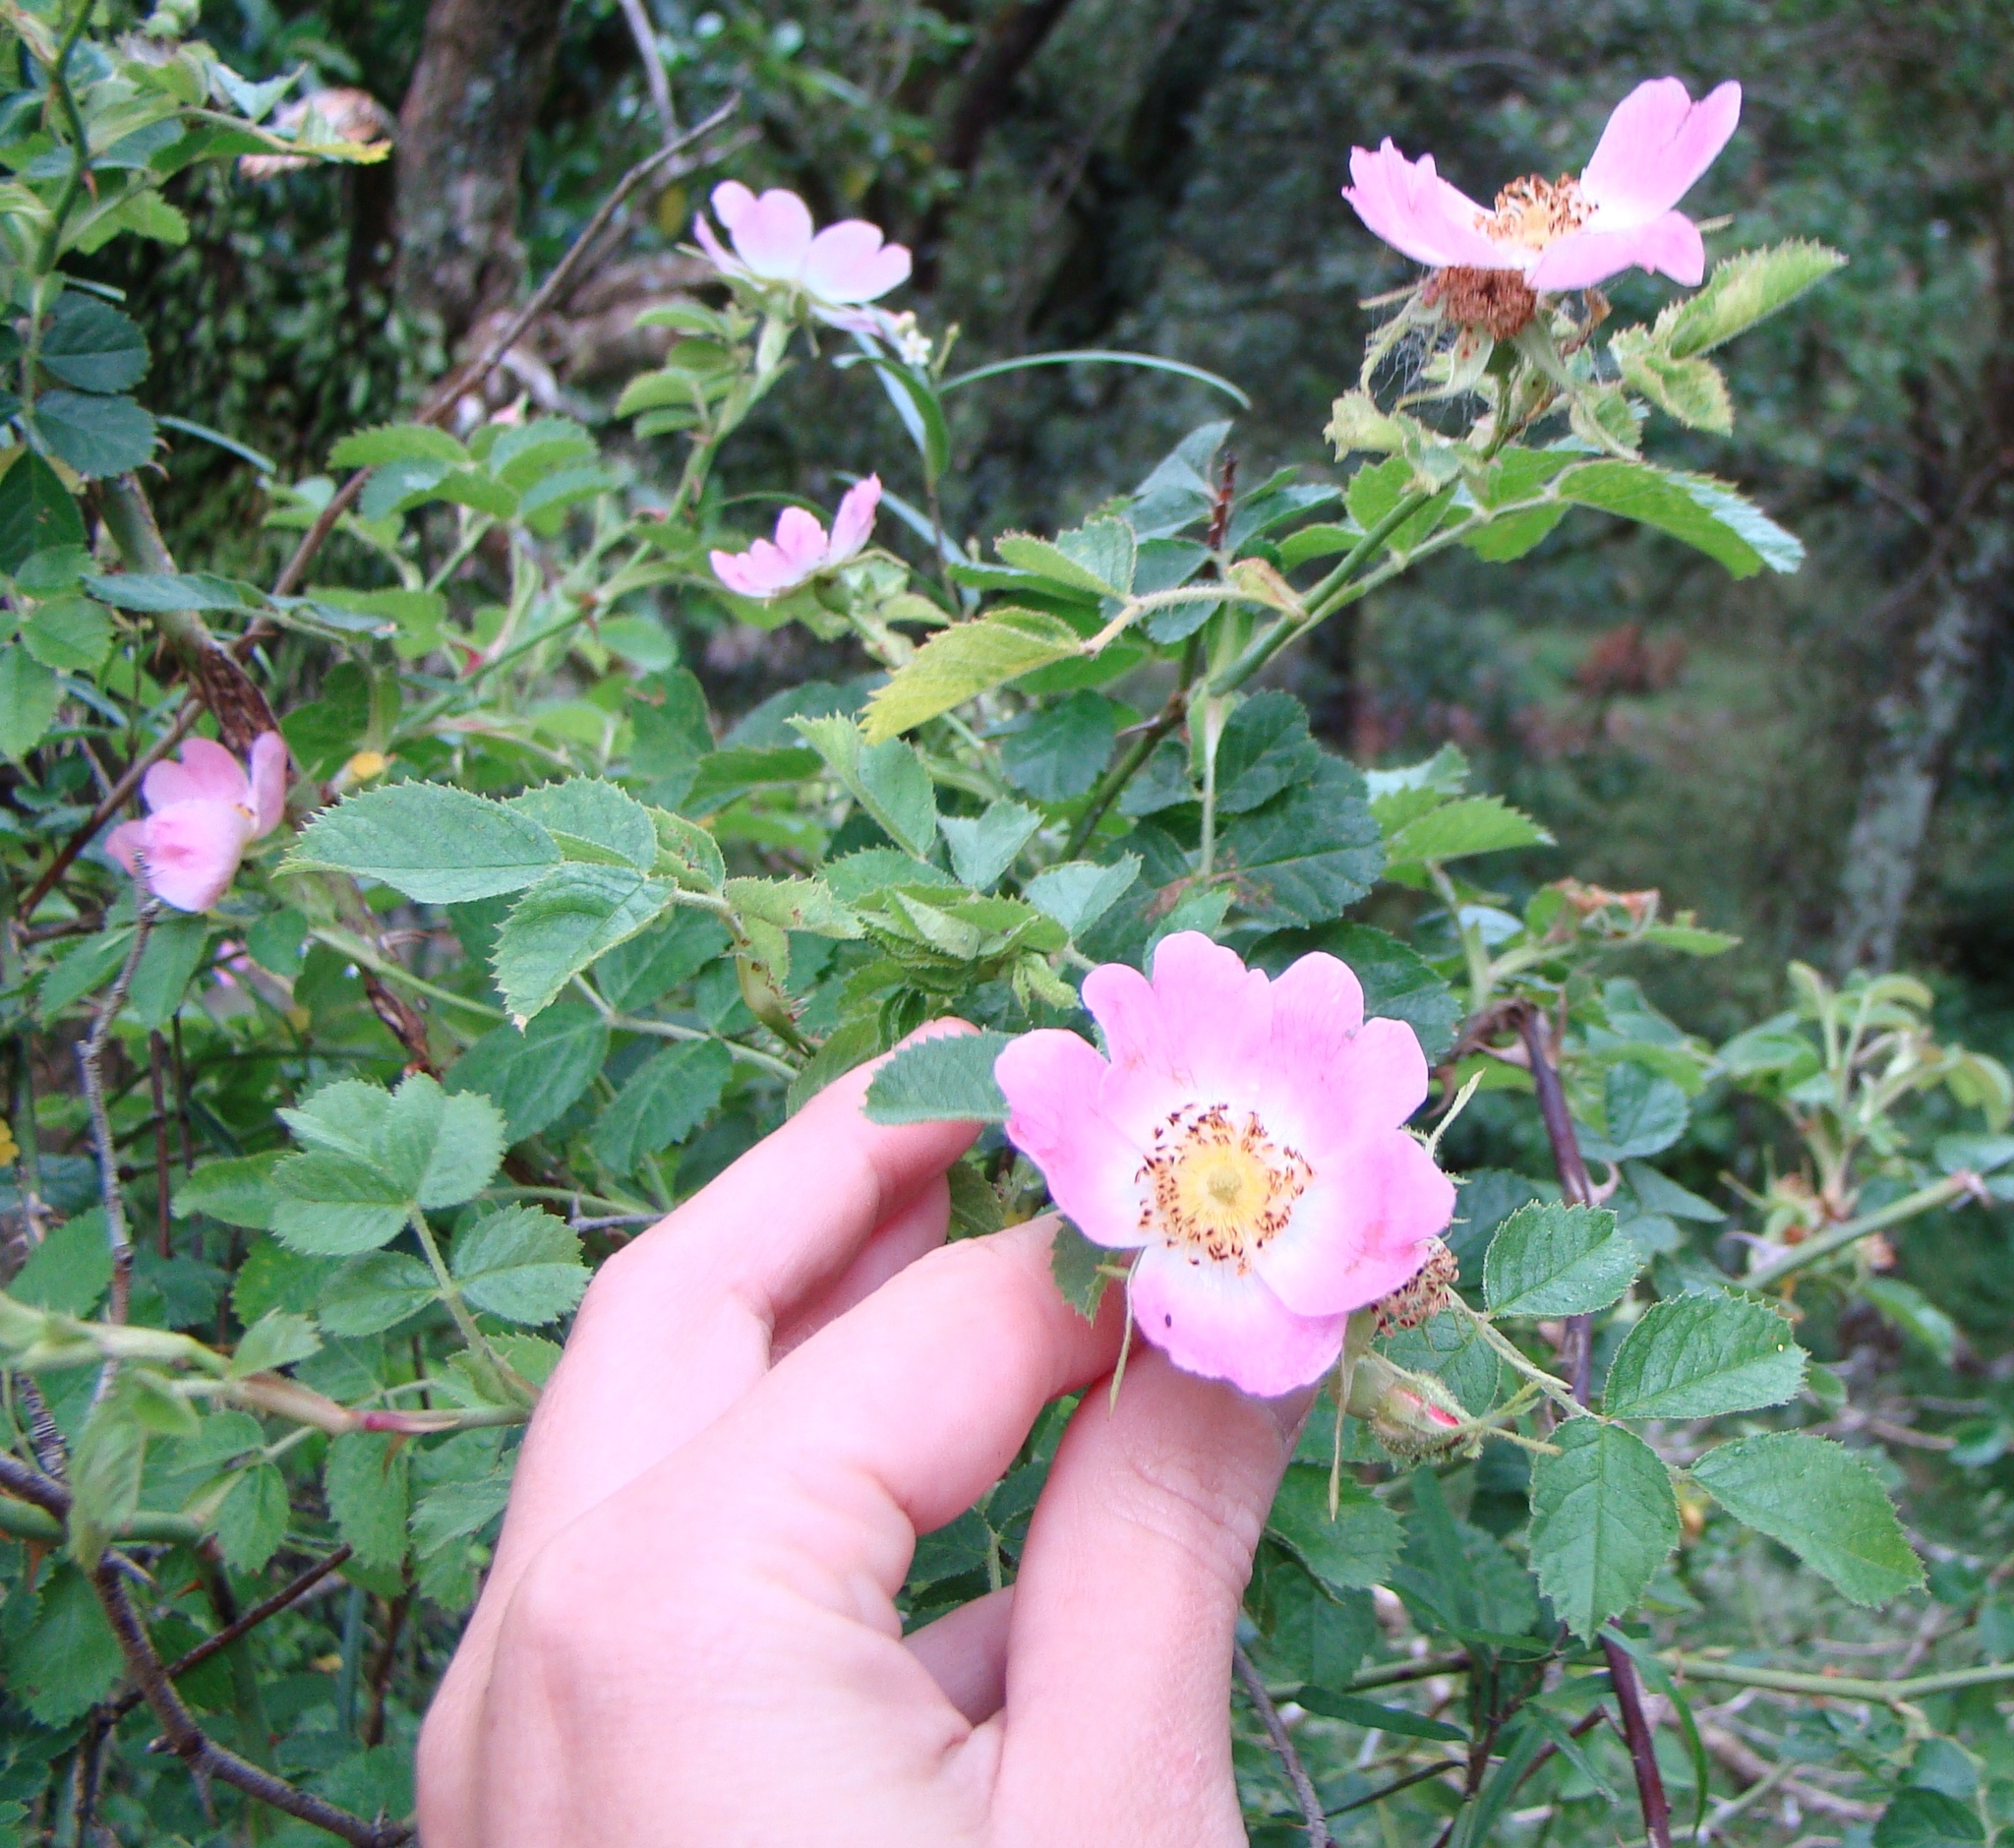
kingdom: Plantae
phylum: Tracheophyta
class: Magnoliopsida
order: Rosales
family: Rosaceae
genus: Rosa
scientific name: Rosa rubiginosa
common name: Sweet-briar
